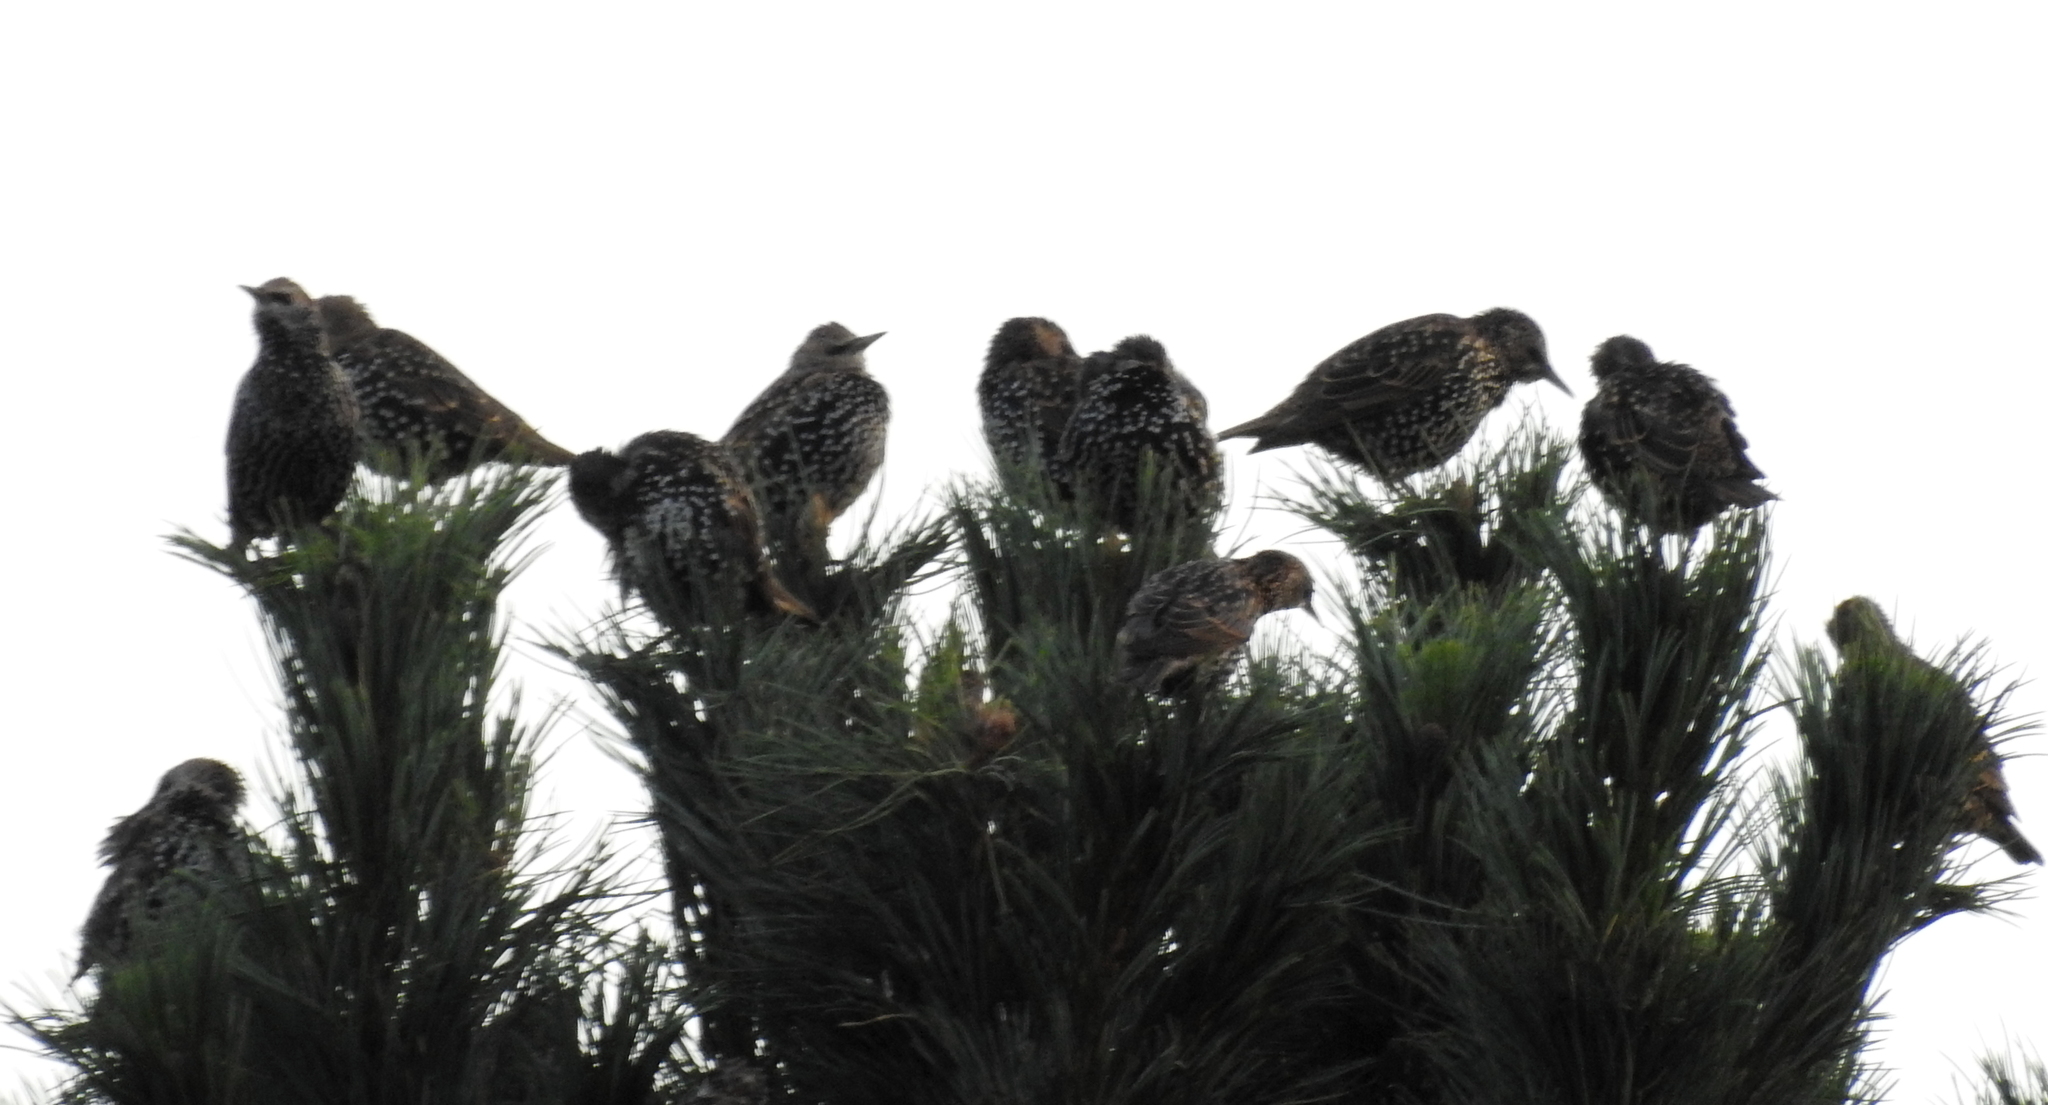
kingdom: Animalia
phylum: Chordata
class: Aves
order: Passeriformes
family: Sturnidae
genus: Sturnus
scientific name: Sturnus vulgaris
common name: Common starling
